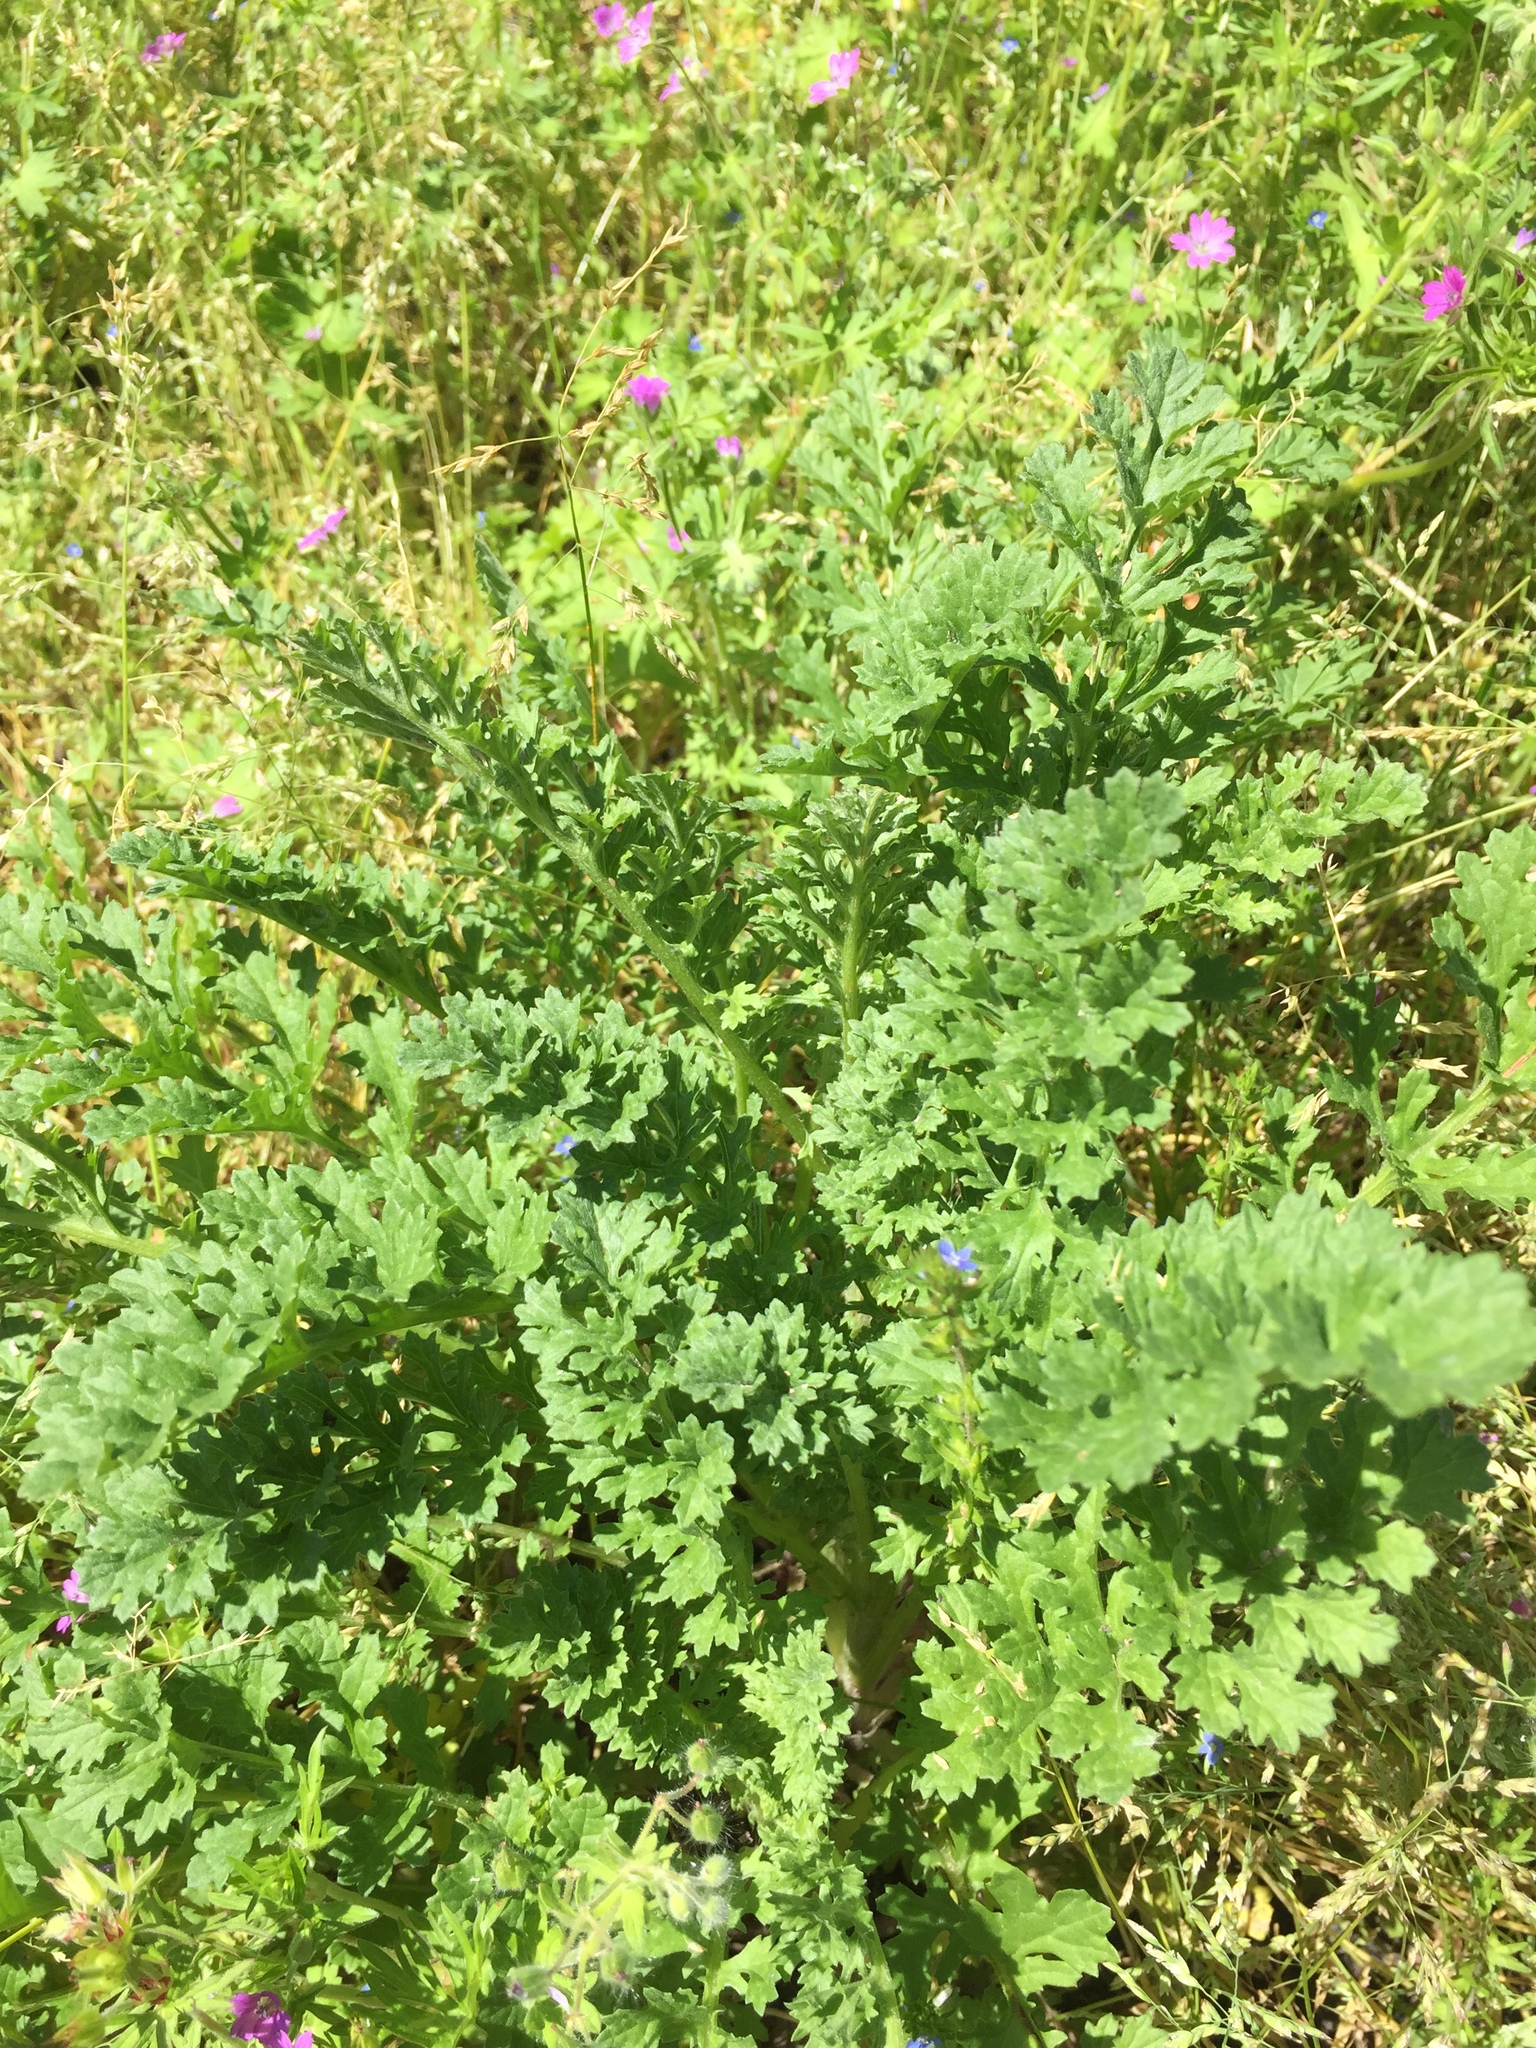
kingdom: Plantae
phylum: Tracheophyta
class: Magnoliopsida
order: Asterales
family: Asteraceae
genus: Jacobaea
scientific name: Jacobaea vulgaris
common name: Stinking willie
